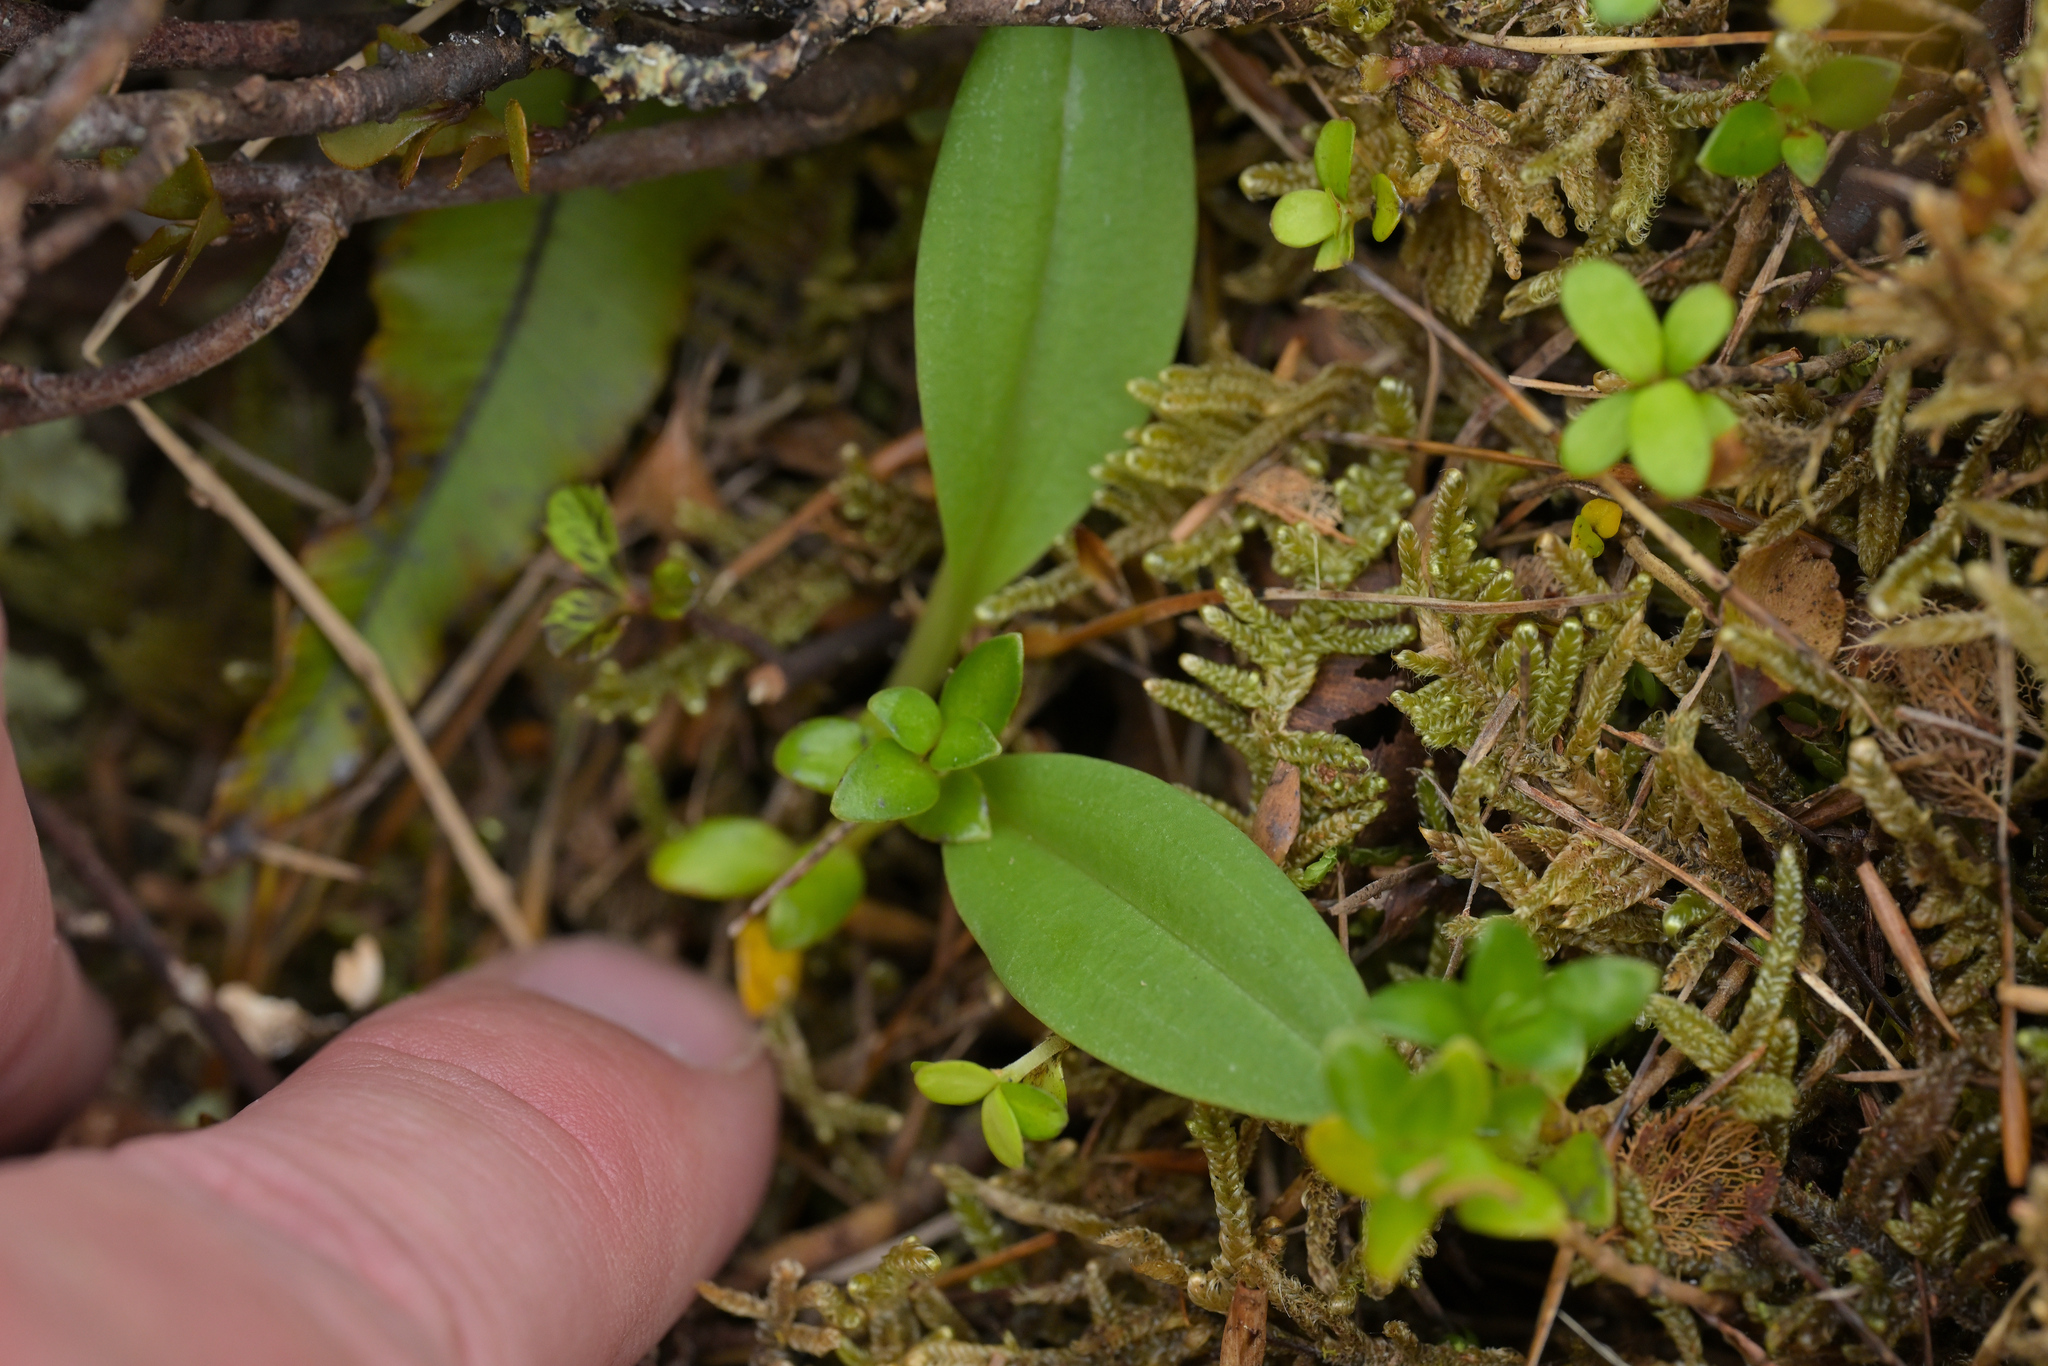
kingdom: Plantae
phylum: Tracheophyta
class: Liliopsida
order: Asparagales
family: Orchidaceae
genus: Chiloglottis
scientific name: Chiloglottis cornuta
